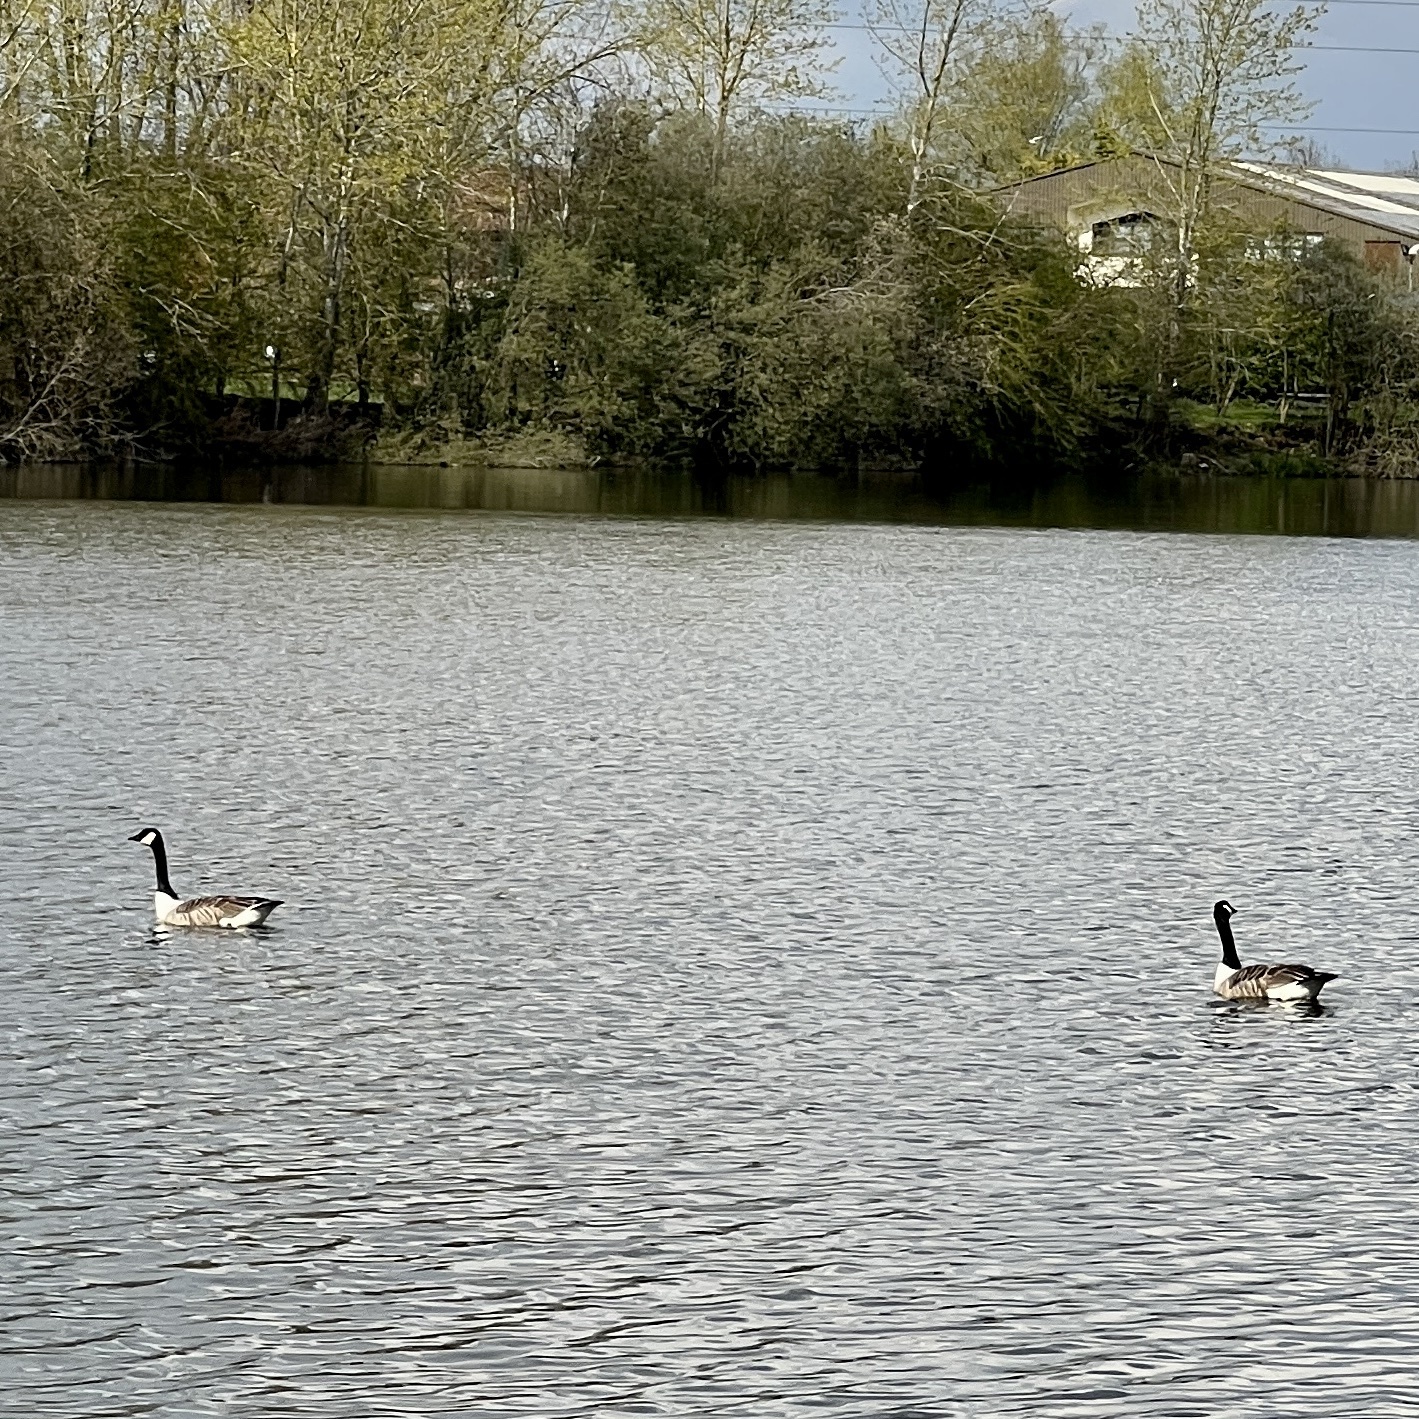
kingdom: Animalia
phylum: Chordata
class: Aves
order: Anseriformes
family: Anatidae
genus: Branta
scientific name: Branta canadensis
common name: Canada goose
